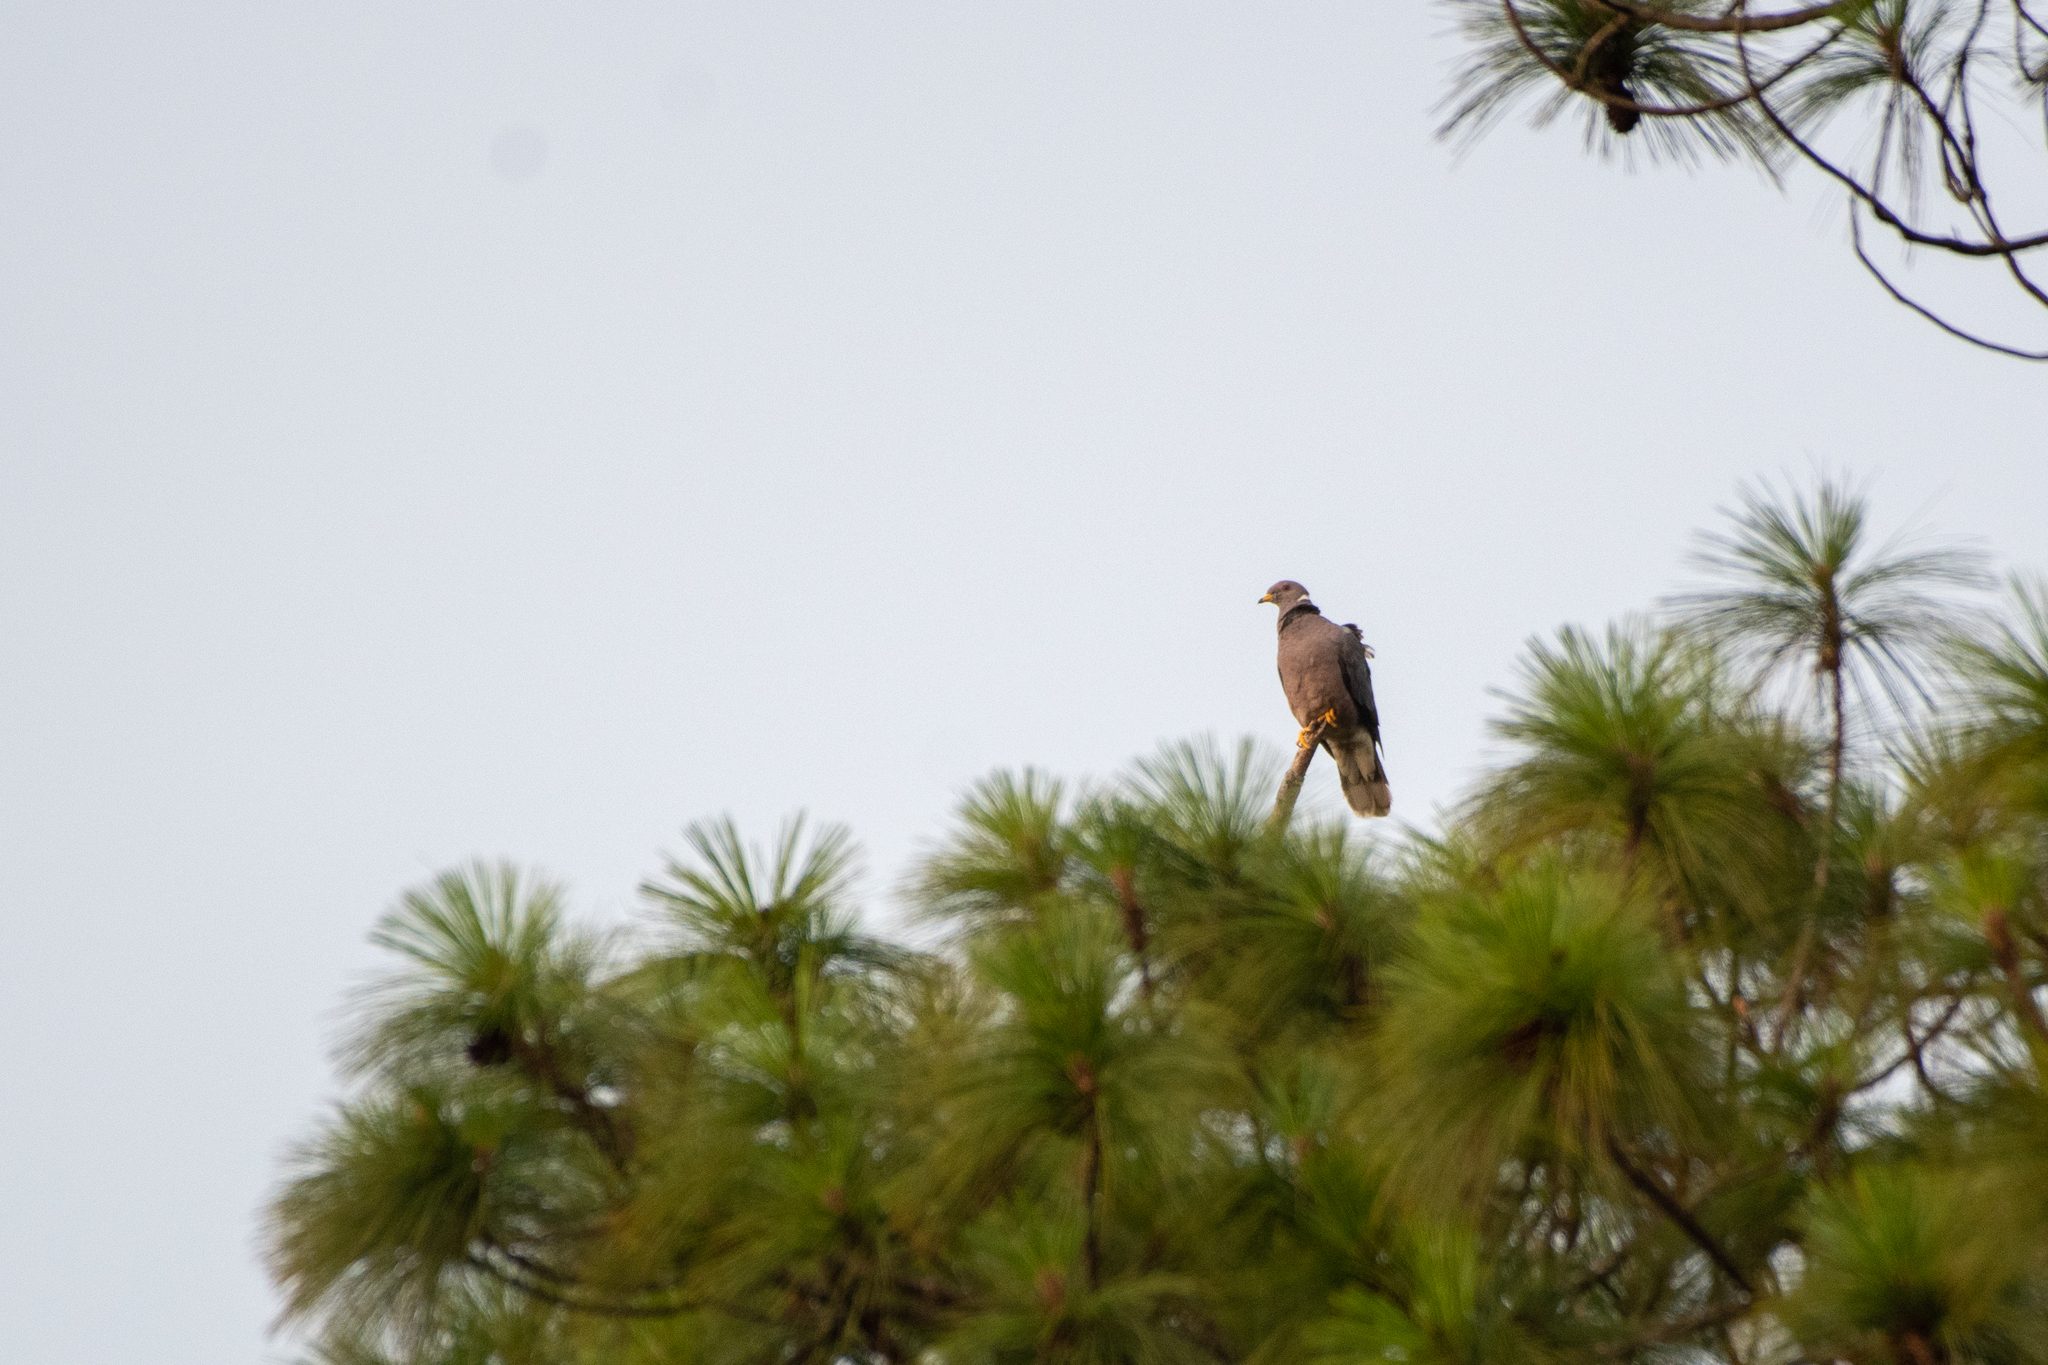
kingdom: Animalia
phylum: Chordata
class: Aves
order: Columbiformes
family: Columbidae
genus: Patagioenas
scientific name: Patagioenas fasciata
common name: Band-tailed pigeon
